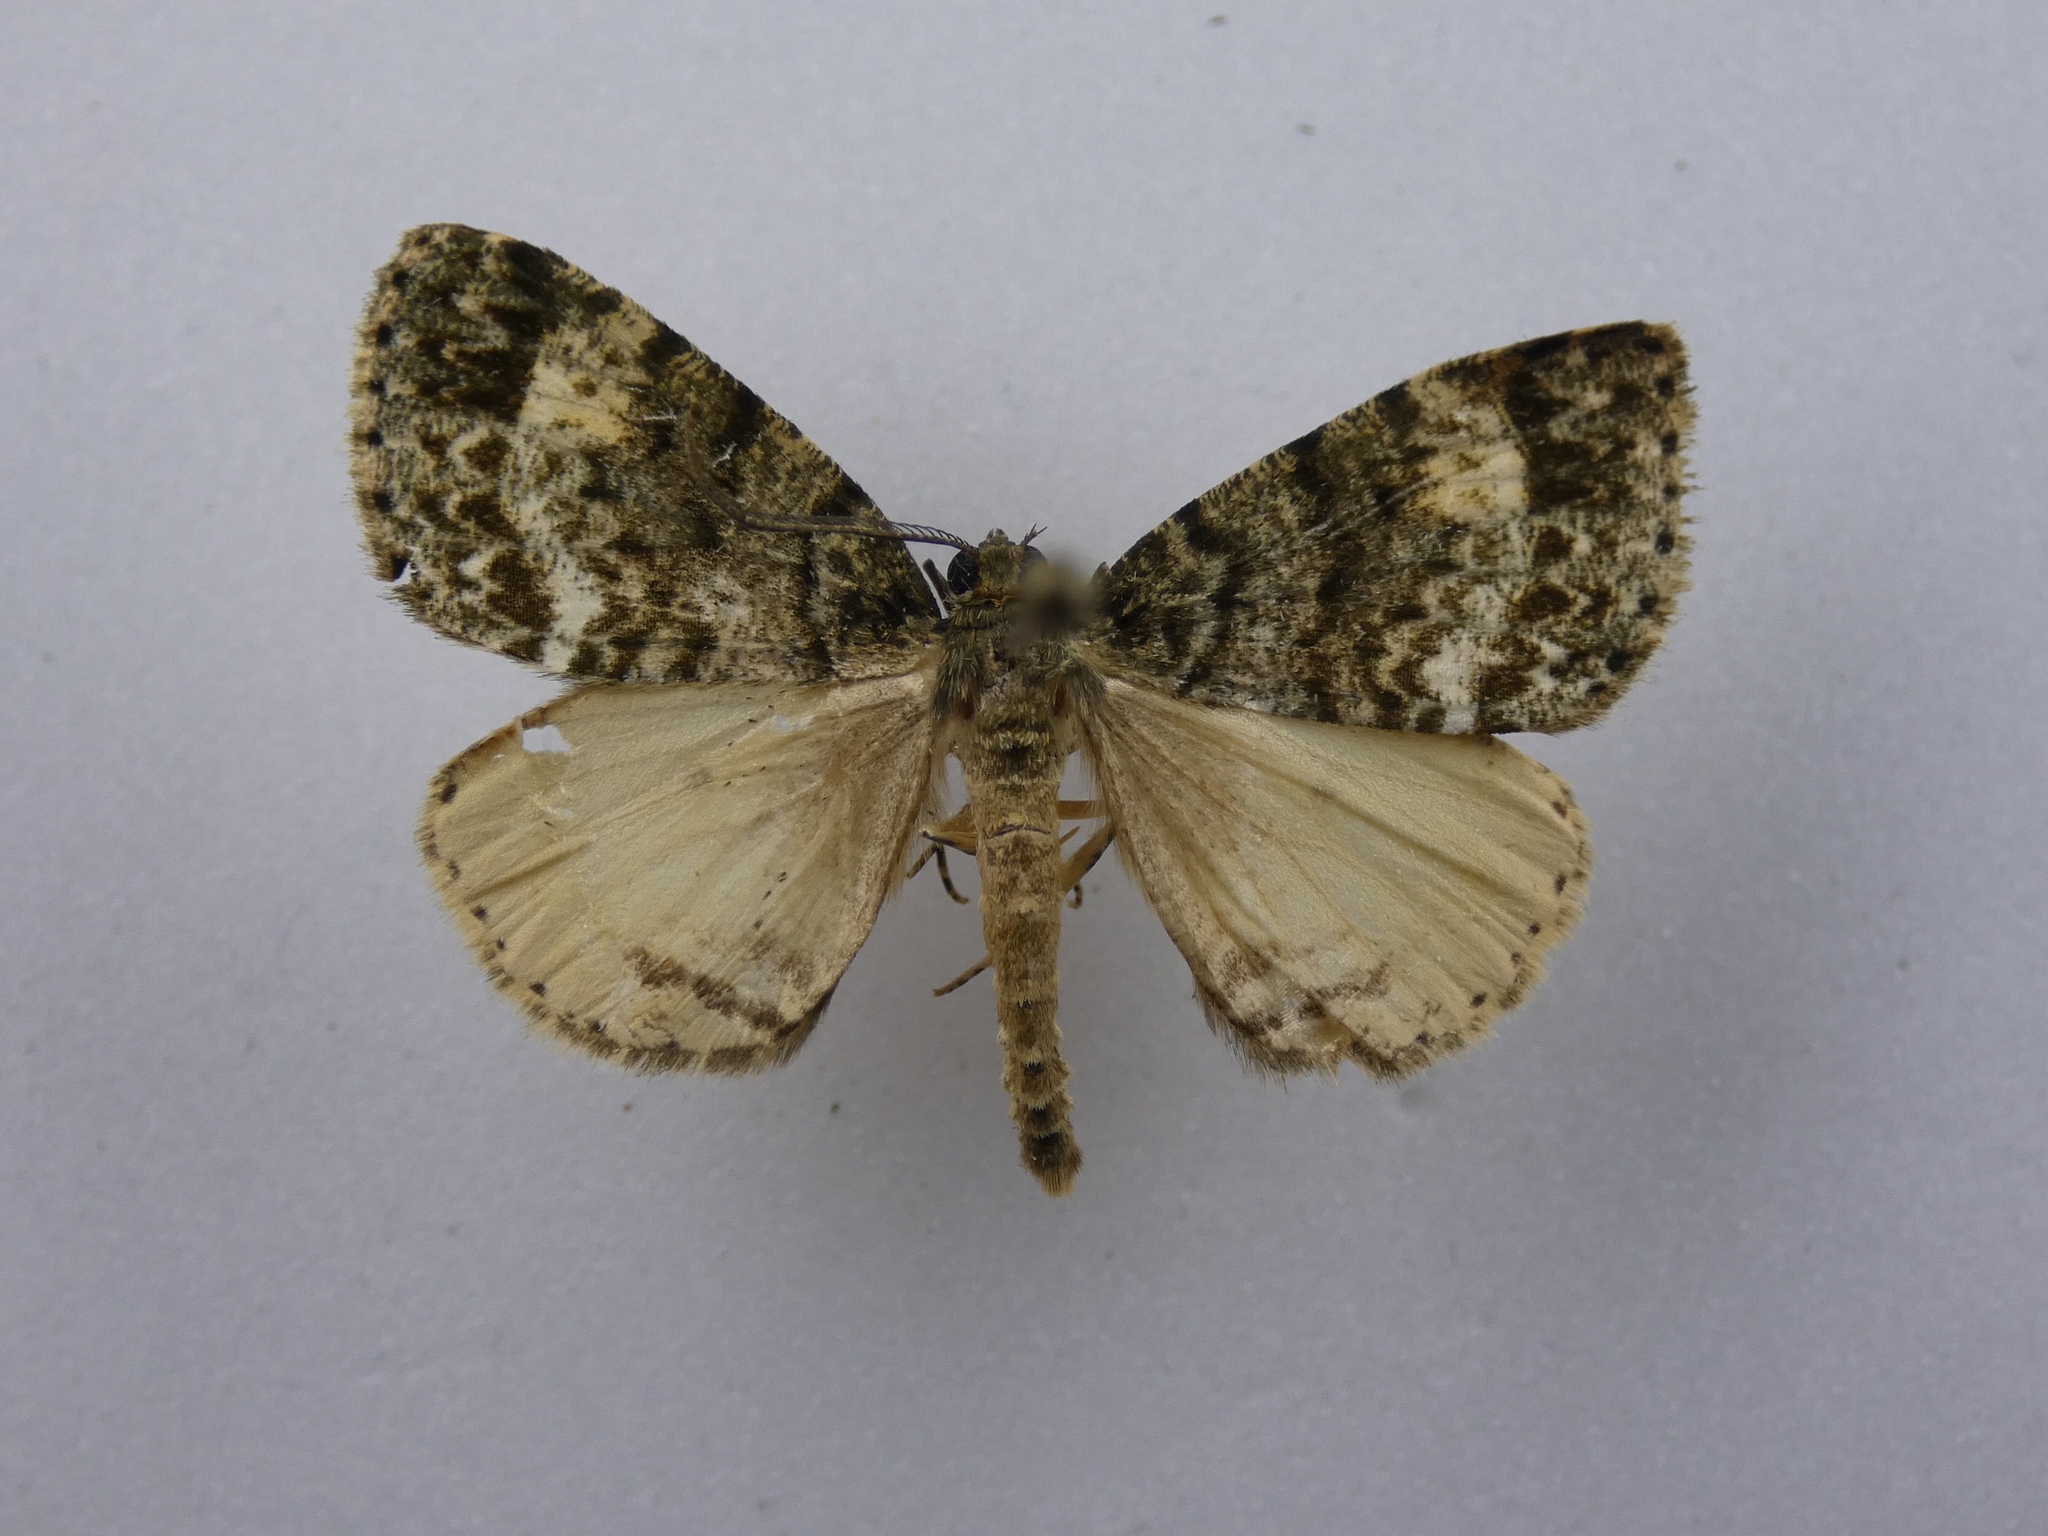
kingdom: Animalia
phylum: Arthropoda
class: Insecta
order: Lepidoptera
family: Geometridae
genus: Pseudocoremia
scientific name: Pseudocoremia indistincta
